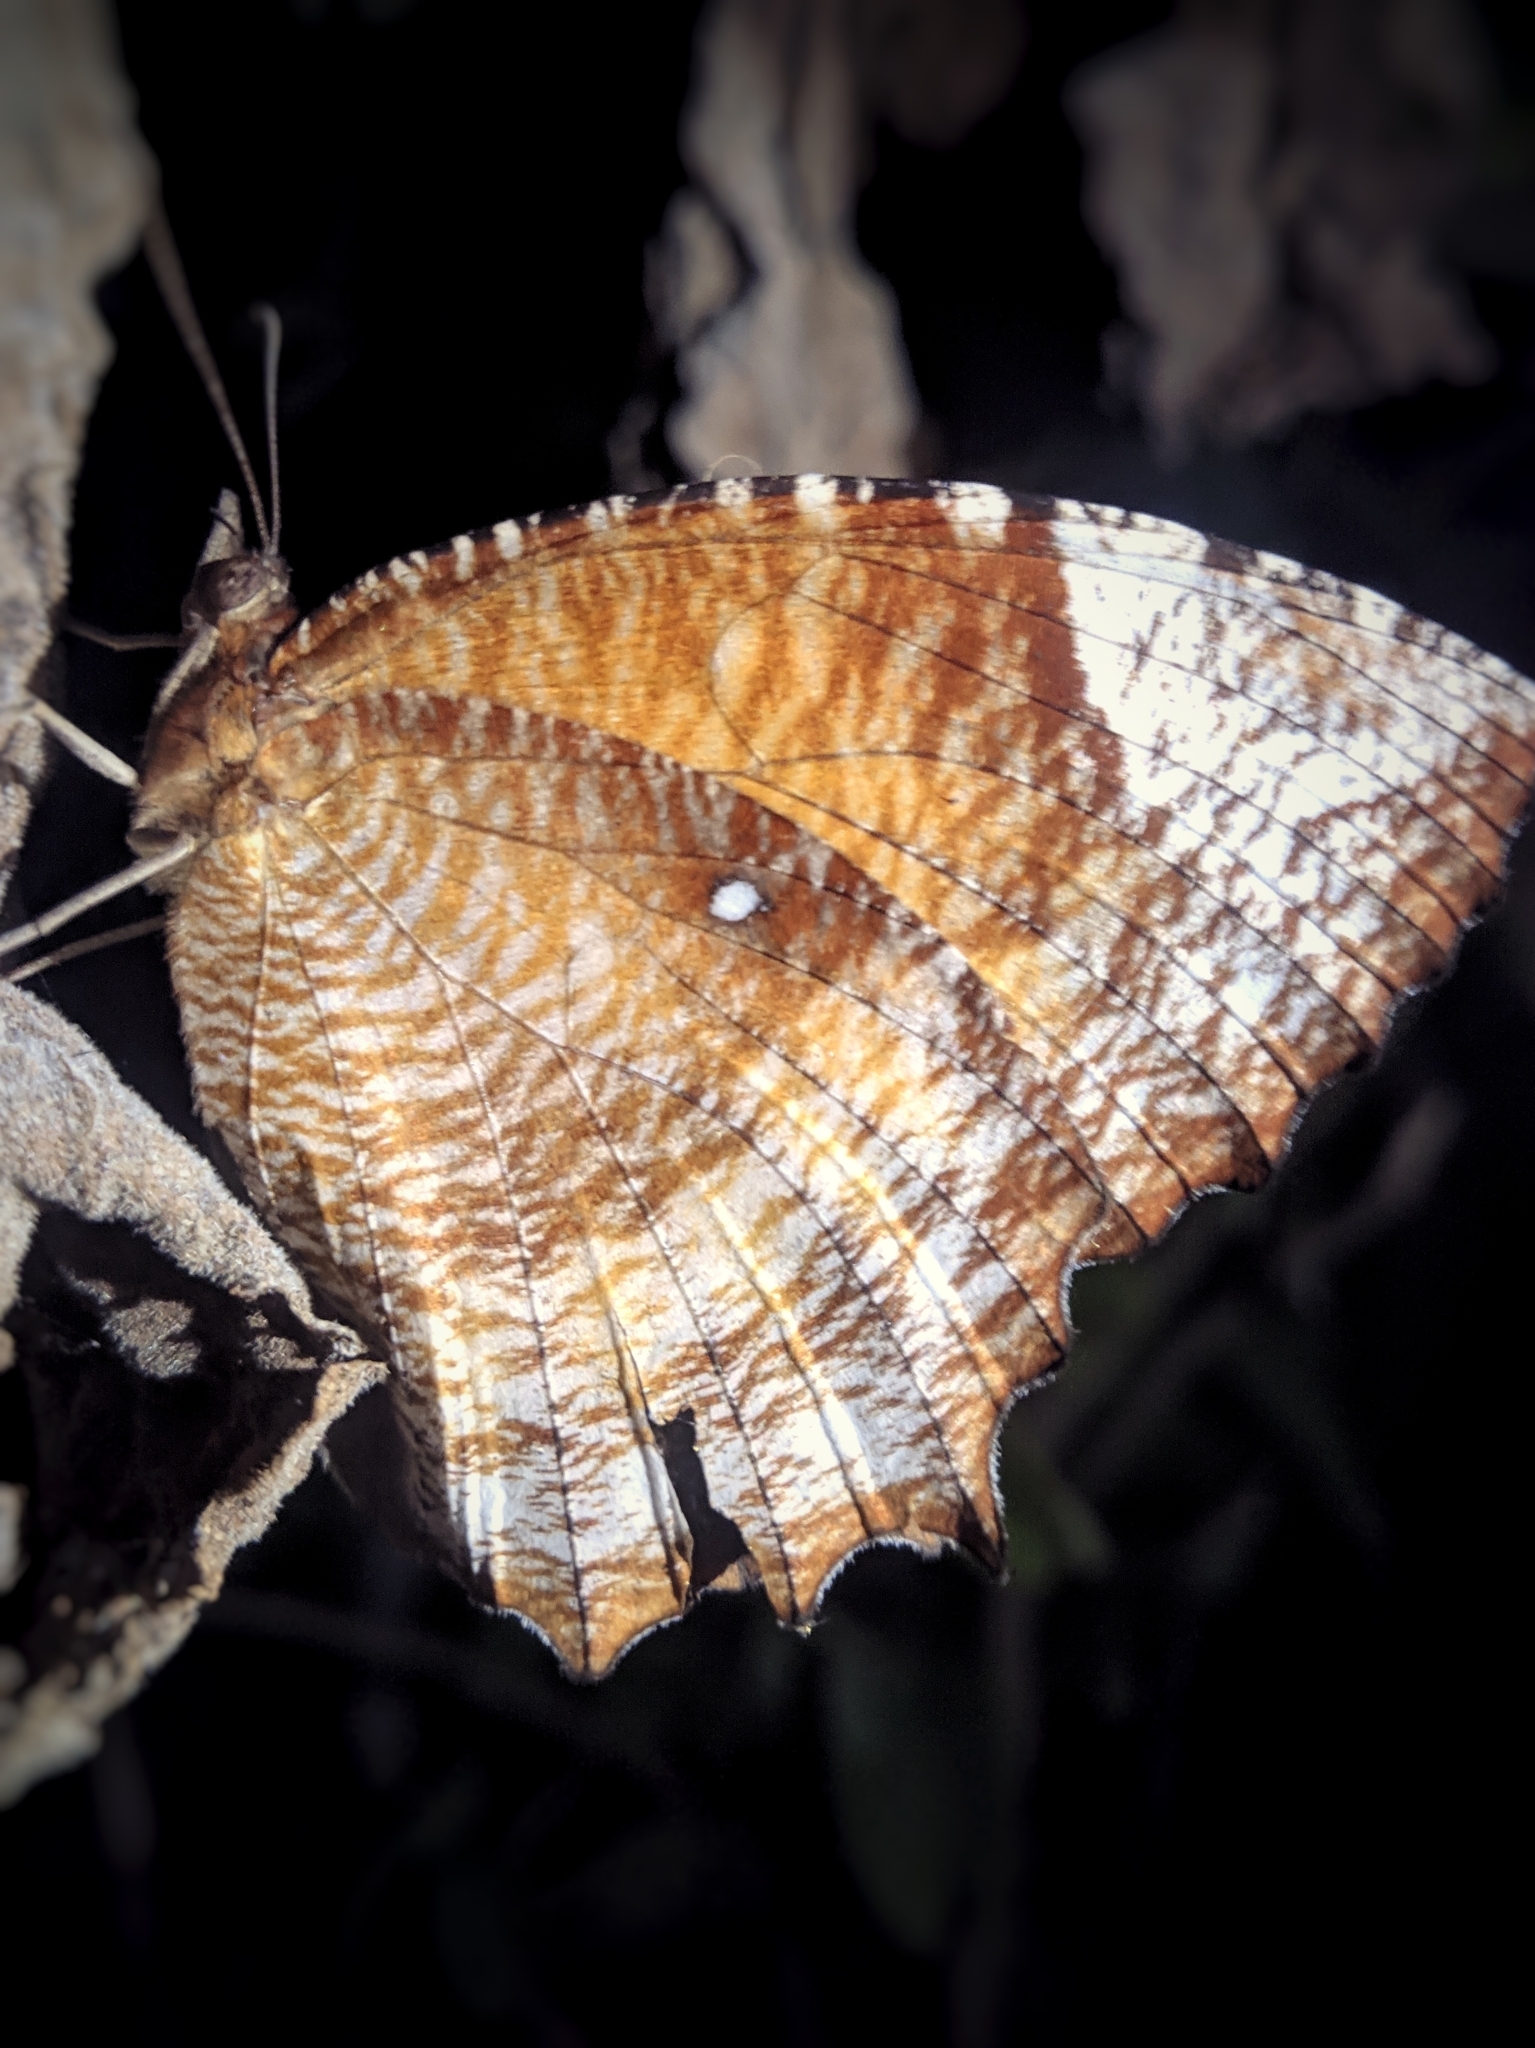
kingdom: Animalia
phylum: Arthropoda
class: Insecta
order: Lepidoptera
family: Nymphalidae
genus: Elymnias
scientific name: Elymnias hypermnestra
